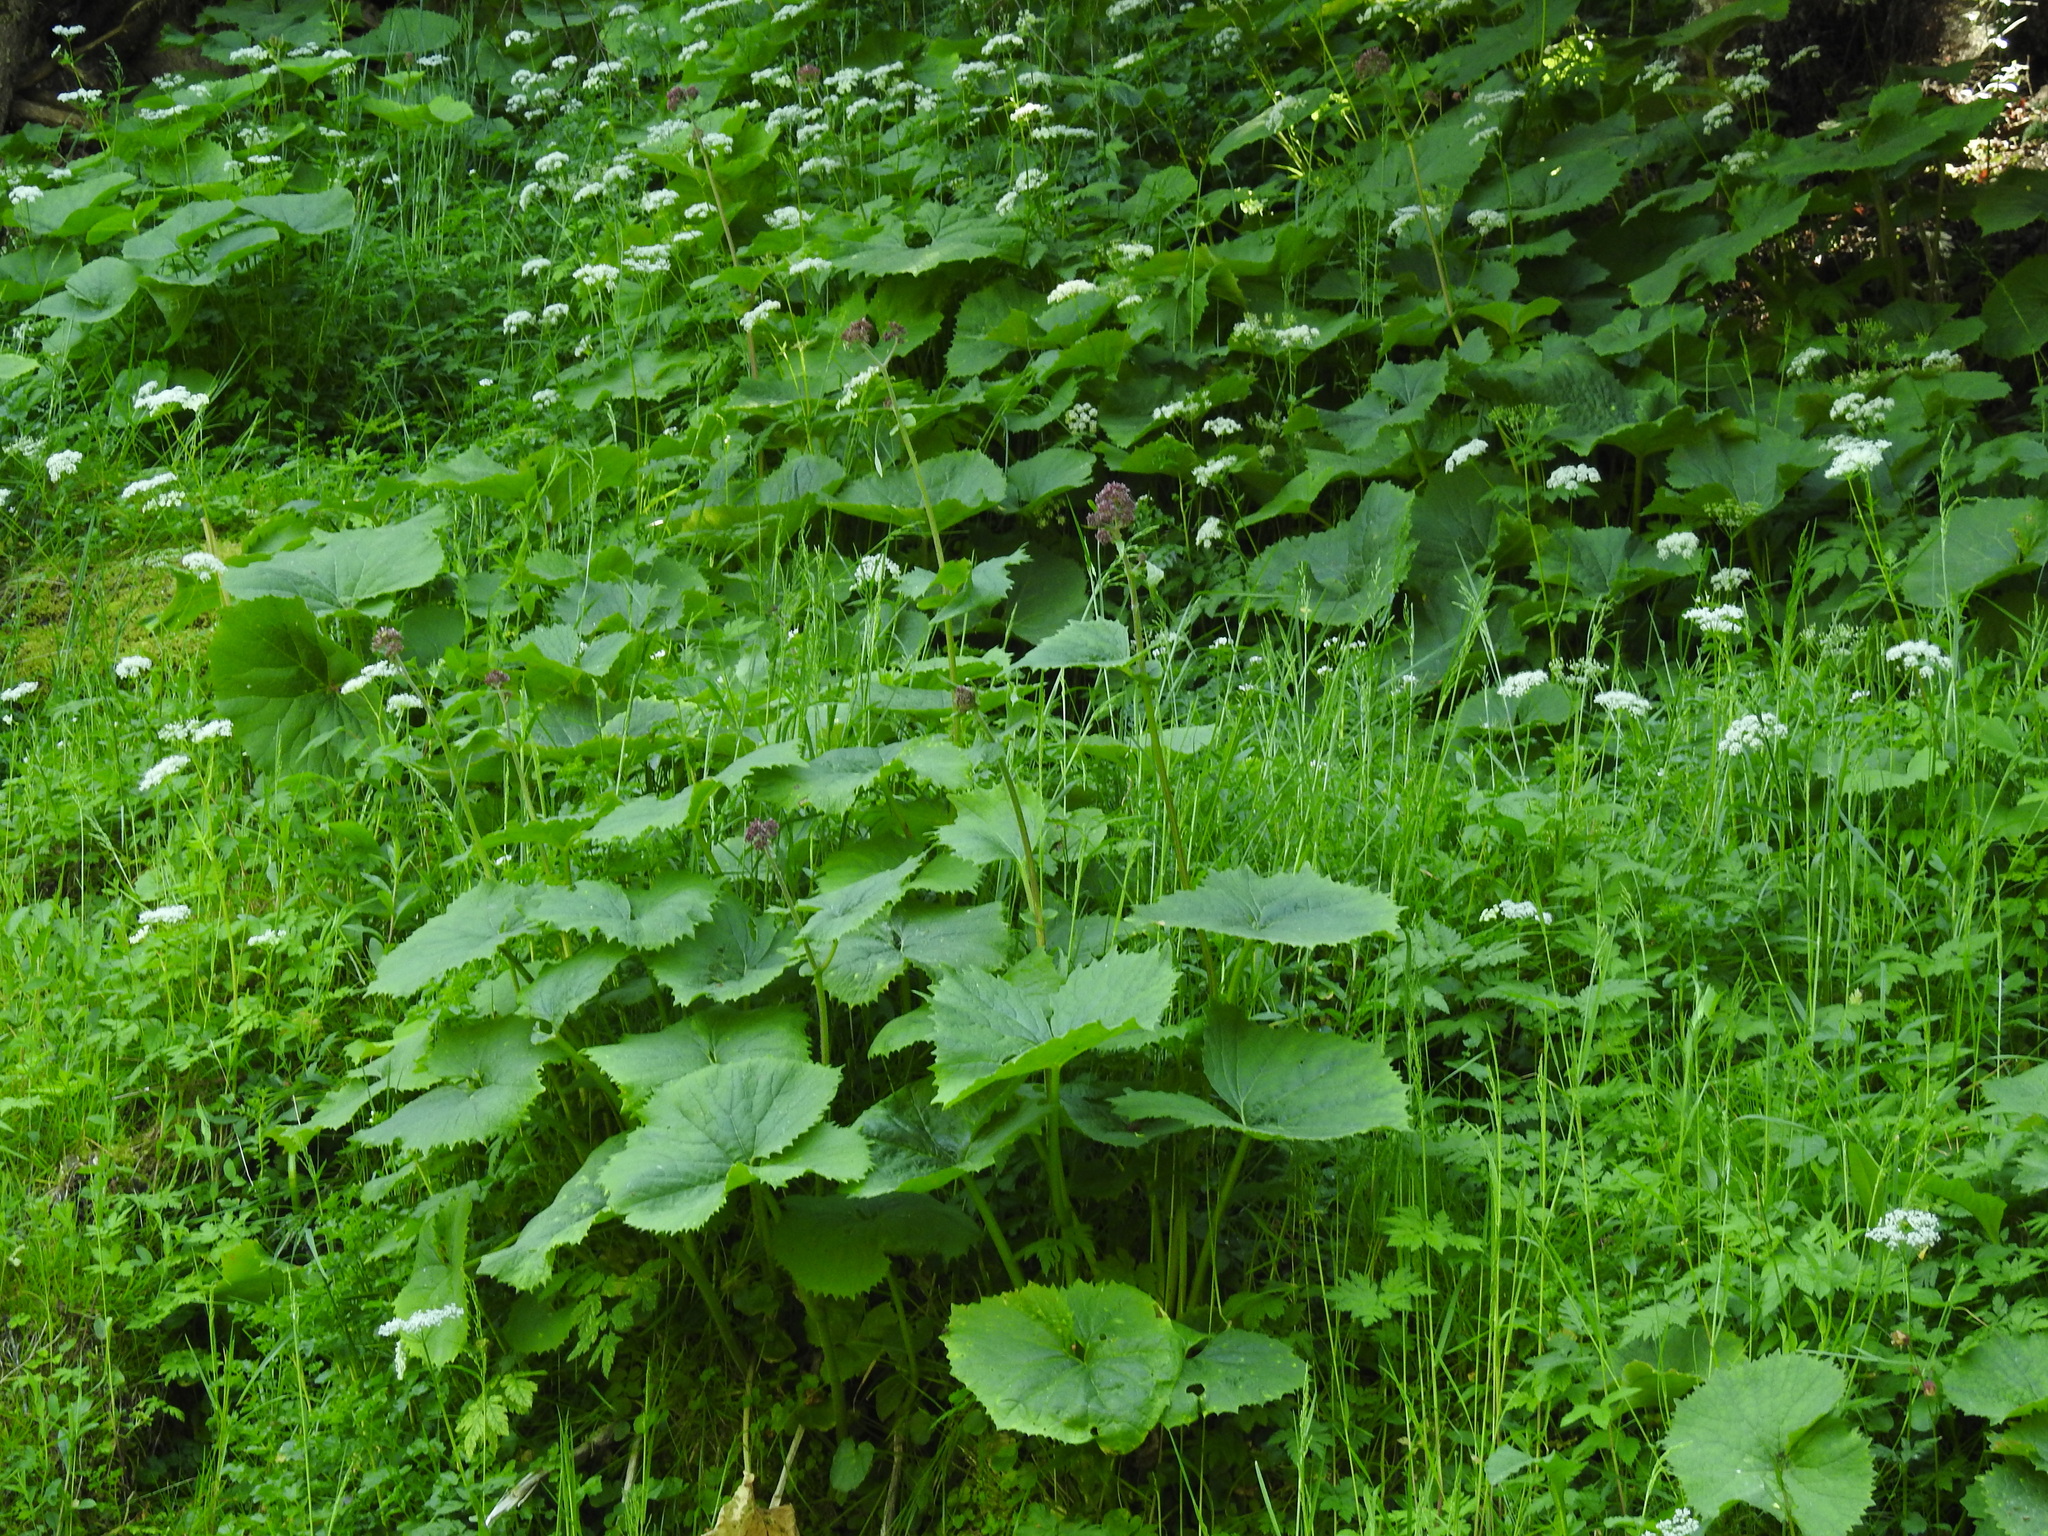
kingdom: Plantae
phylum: Tracheophyta
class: Magnoliopsida
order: Asterales
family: Asteraceae
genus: Adenostyles
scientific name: Adenostyles alliariae
